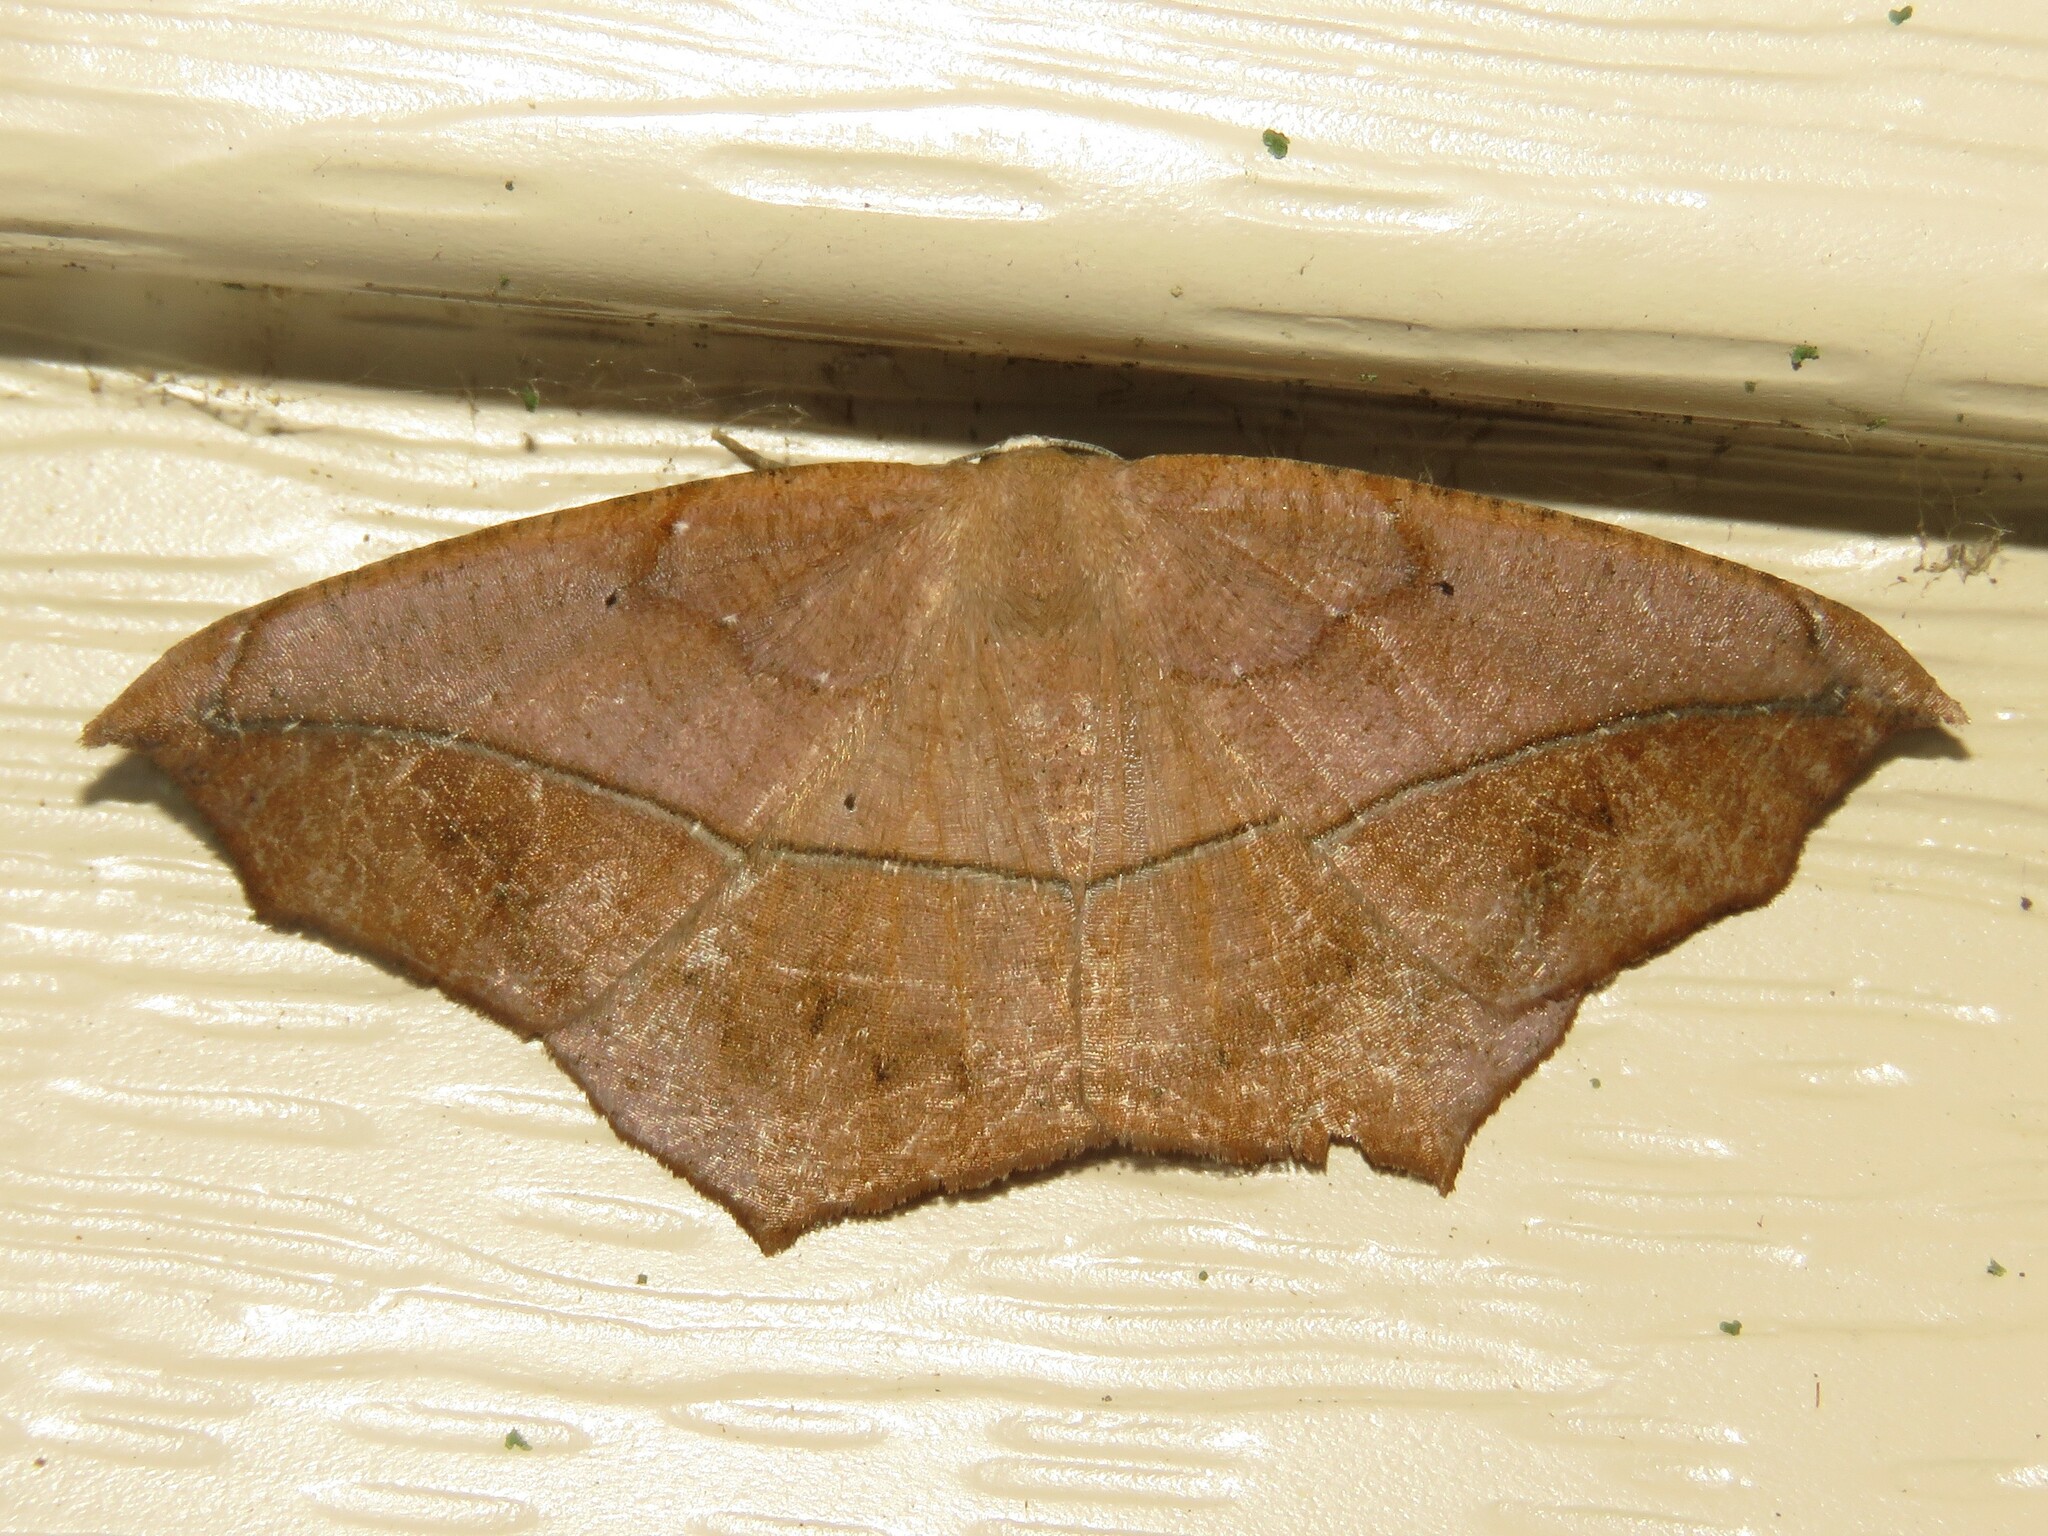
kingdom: Animalia
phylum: Arthropoda
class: Insecta
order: Lepidoptera
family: Geometridae
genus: Prochoerodes
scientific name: Prochoerodes lineola
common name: Large maple spanworm
